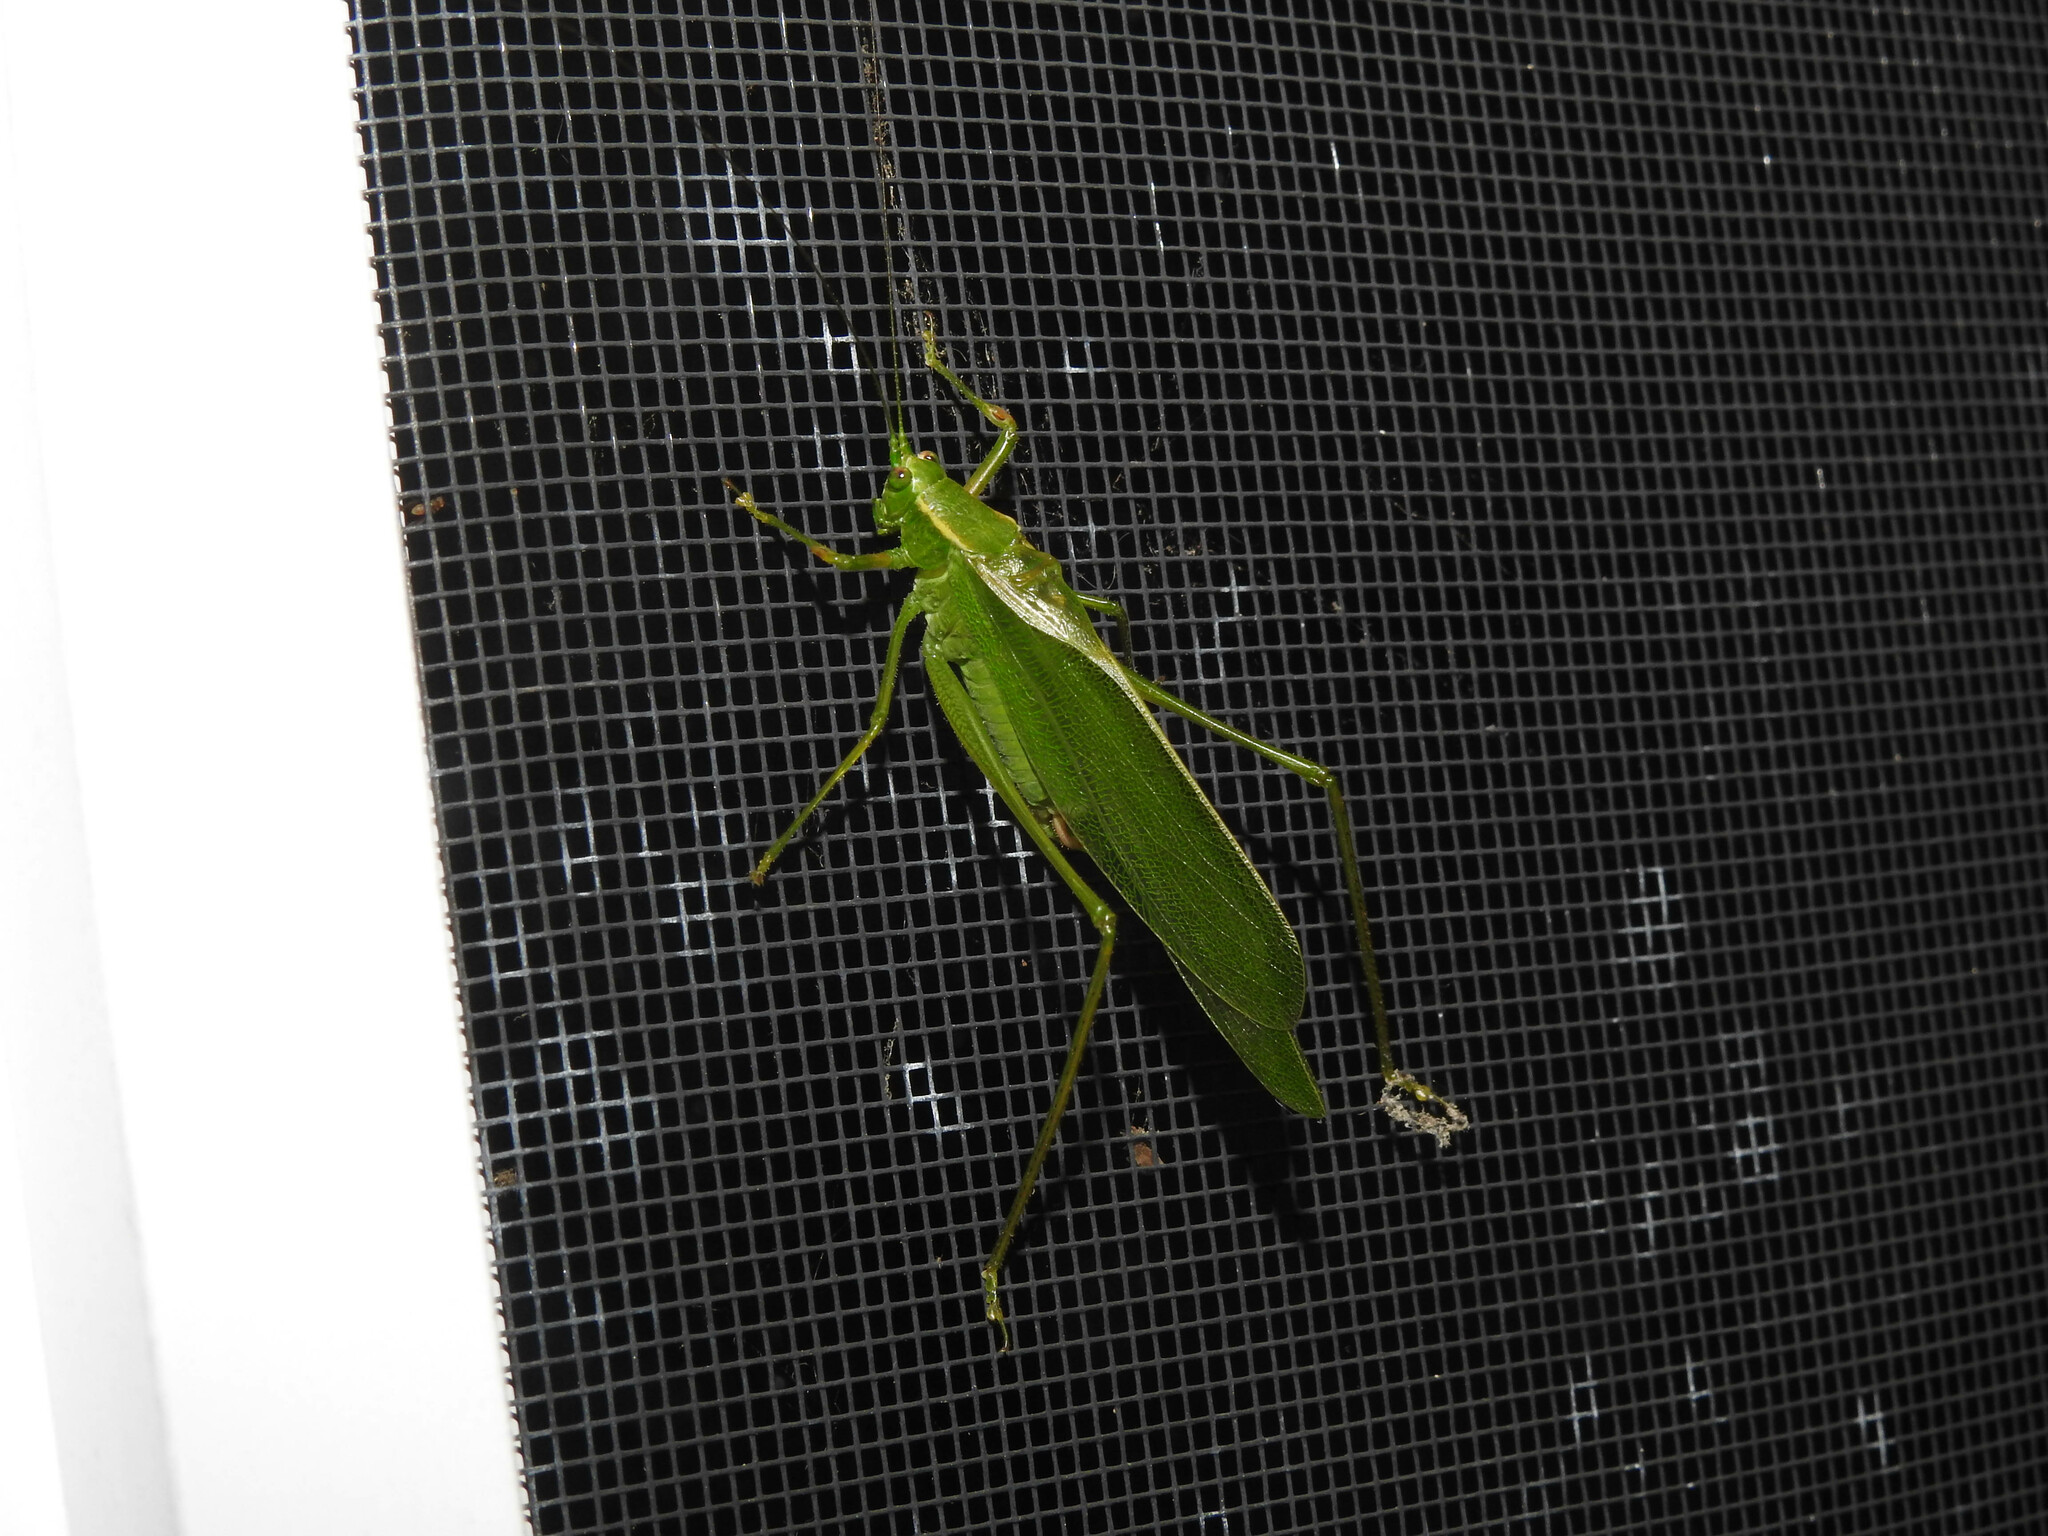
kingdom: Animalia
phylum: Arthropoda
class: Insecta
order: Orthoptera
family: Tettigoniidae
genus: Scudderia
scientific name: Scudderia septentrionalis
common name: Northern bush-katydid
